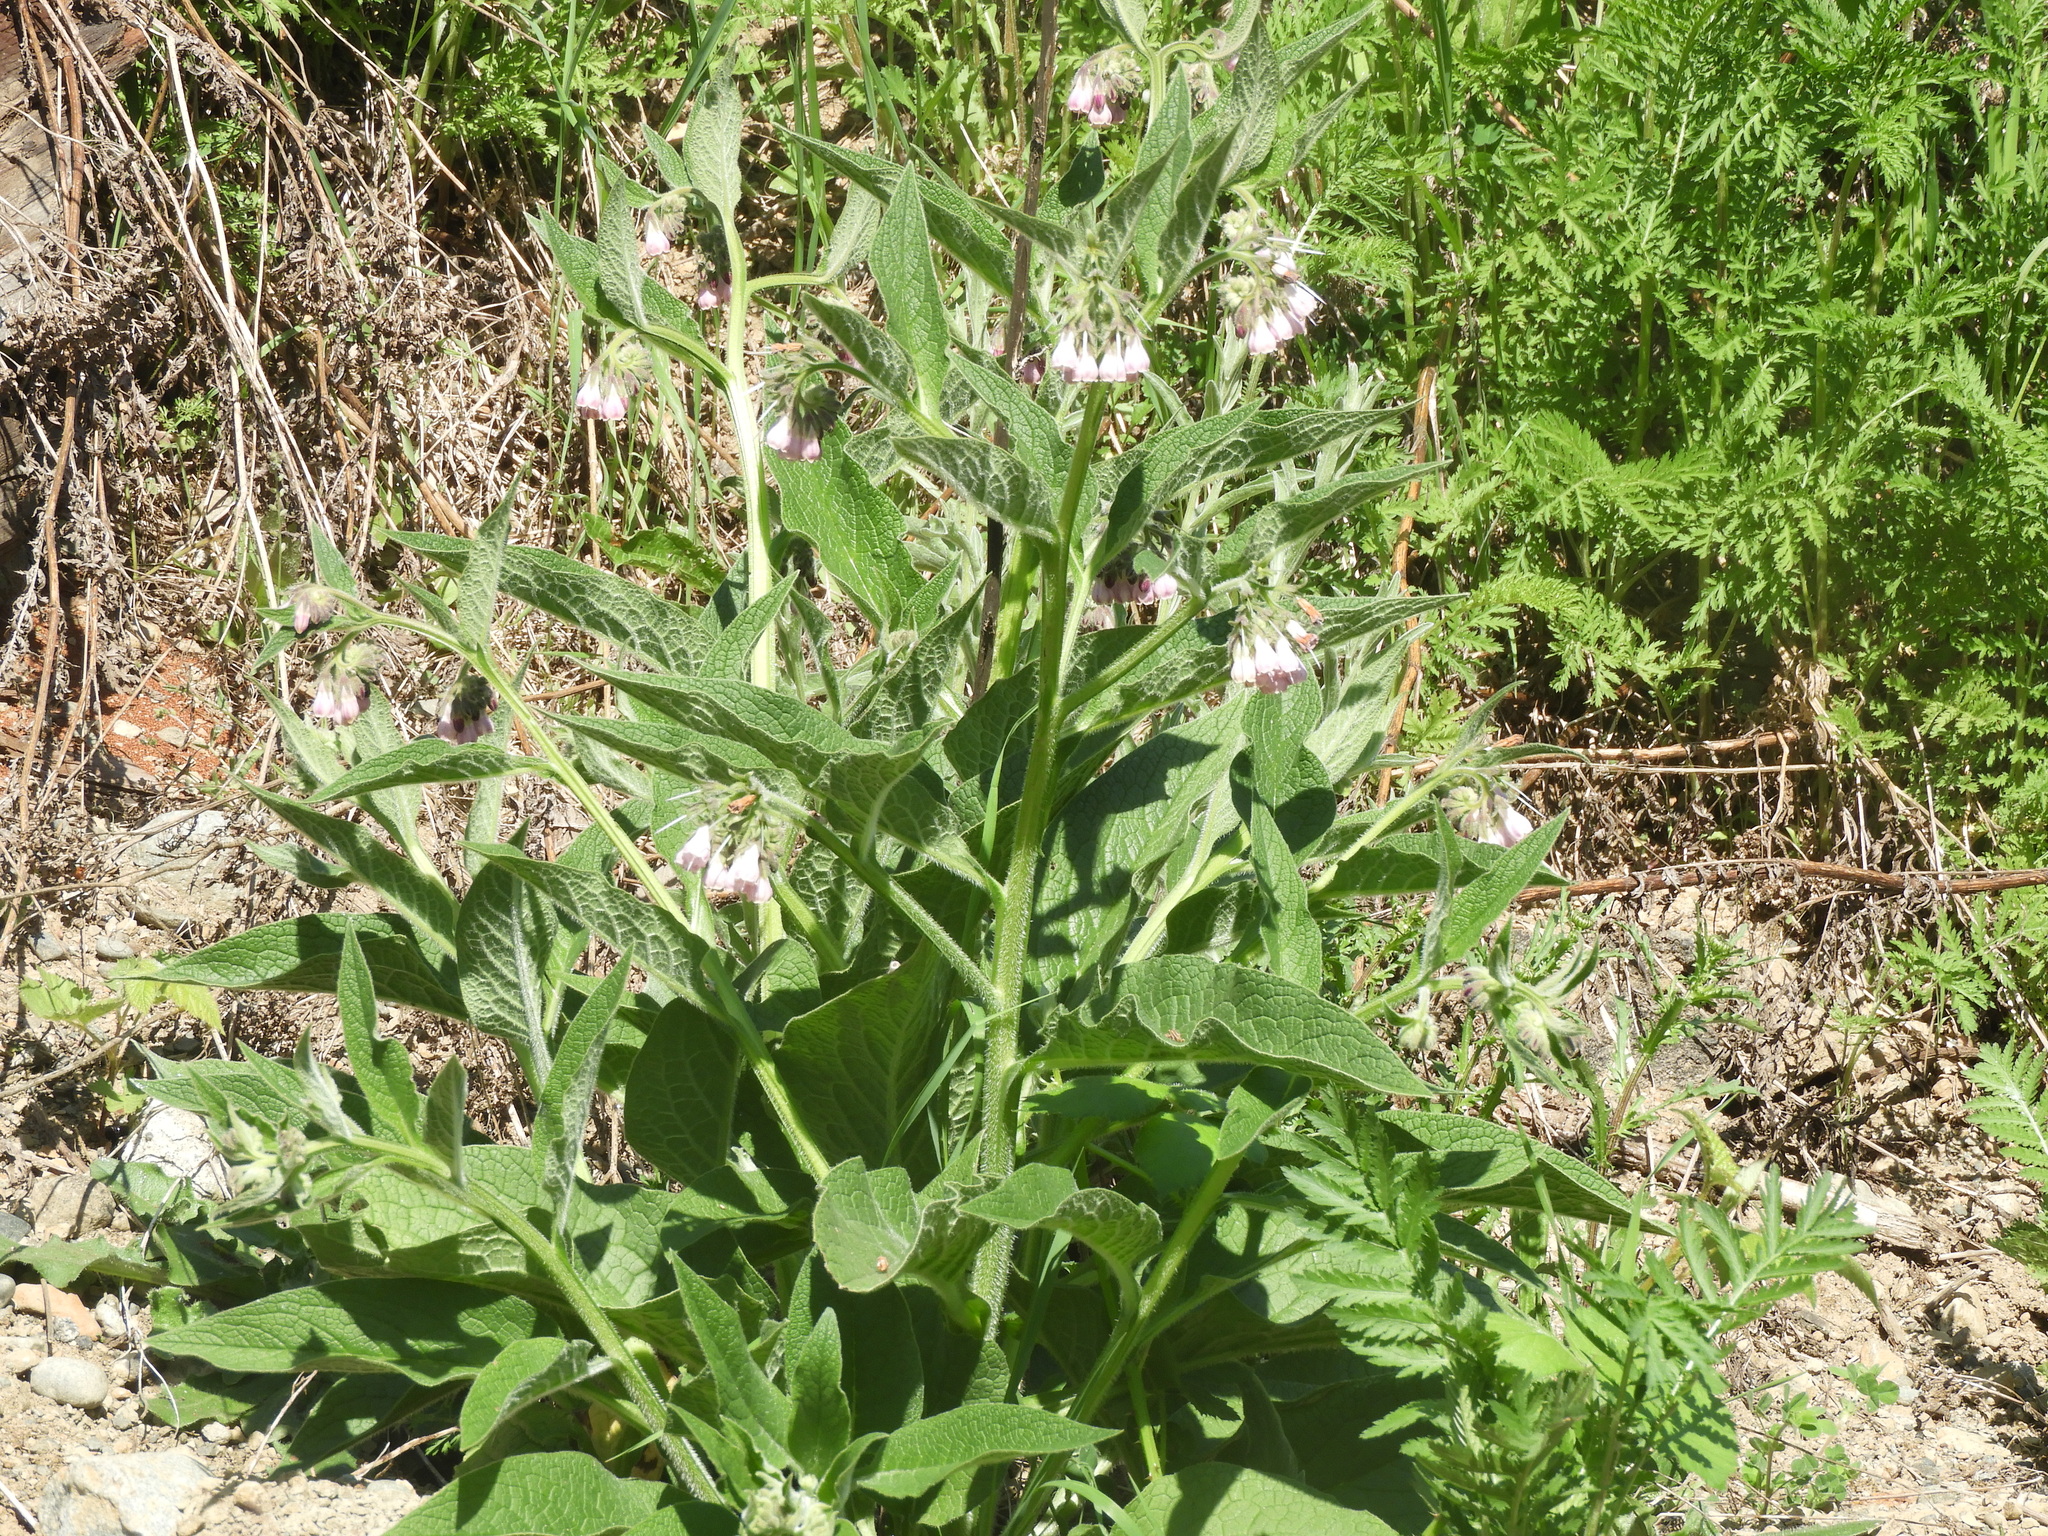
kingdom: Plantae
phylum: Tracheophyta
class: Magnoliopsida
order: Boraginales
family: Boraginaceae
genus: Symphytum
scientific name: Symphytum officinale
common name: Common comfrey
